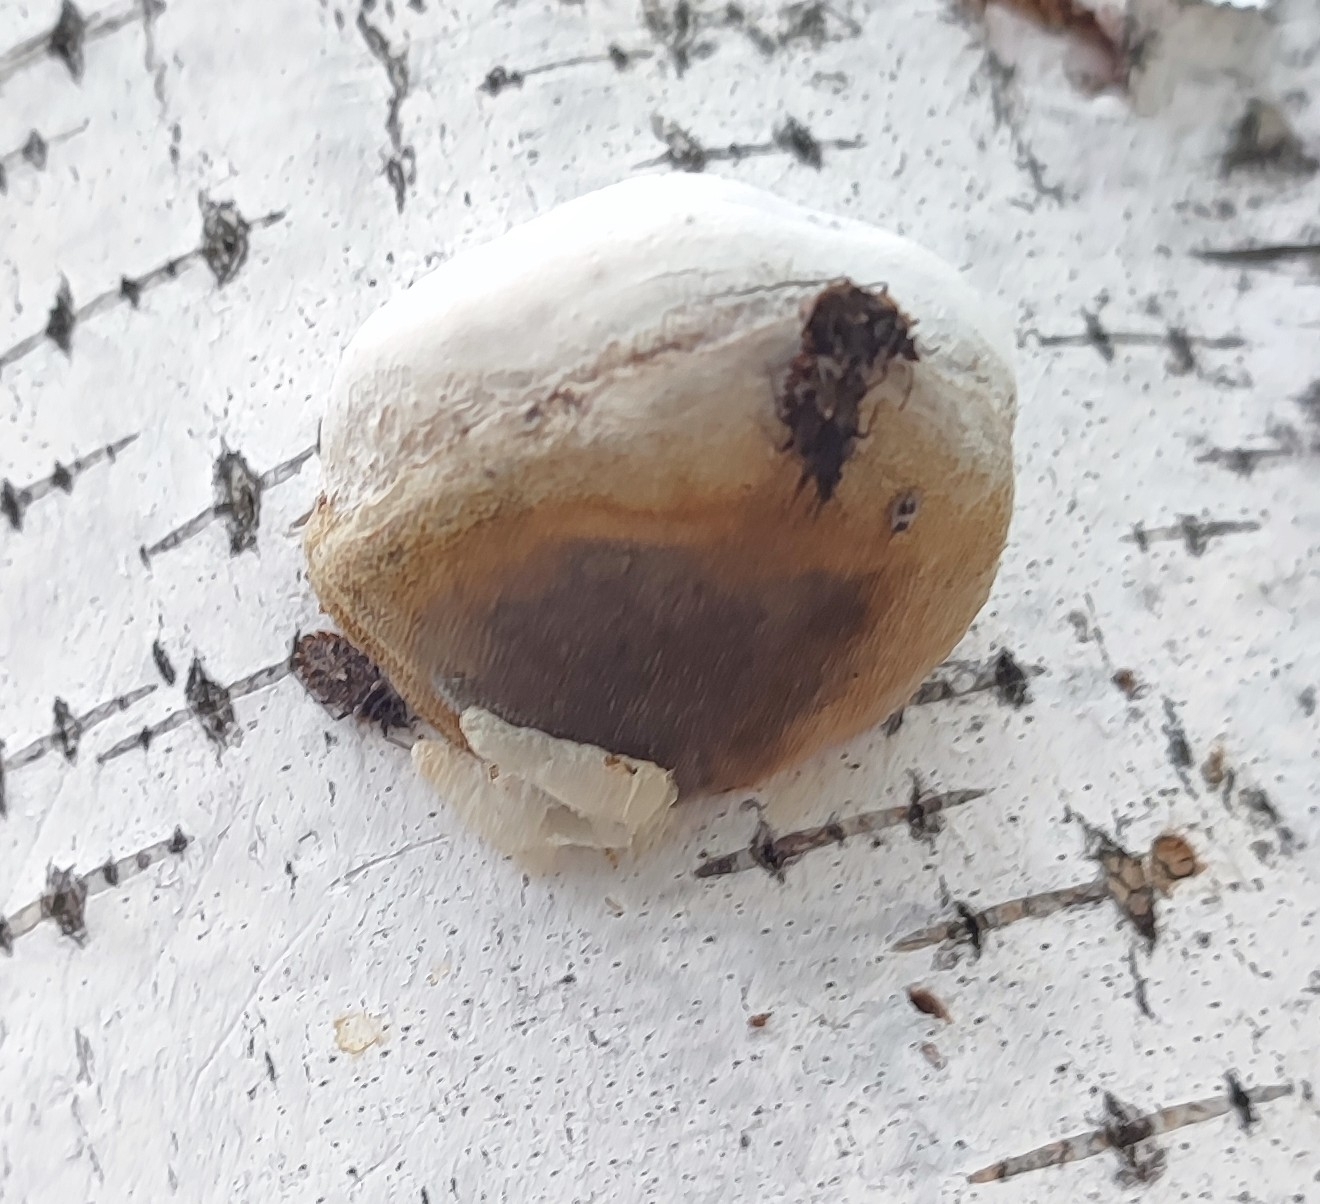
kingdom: Fungi
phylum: Basidiomycota
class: Agaricomycetes
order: Polyporales
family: Polyporaceae
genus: Fomes
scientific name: Fomes fomentarius
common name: Hoof fungus
